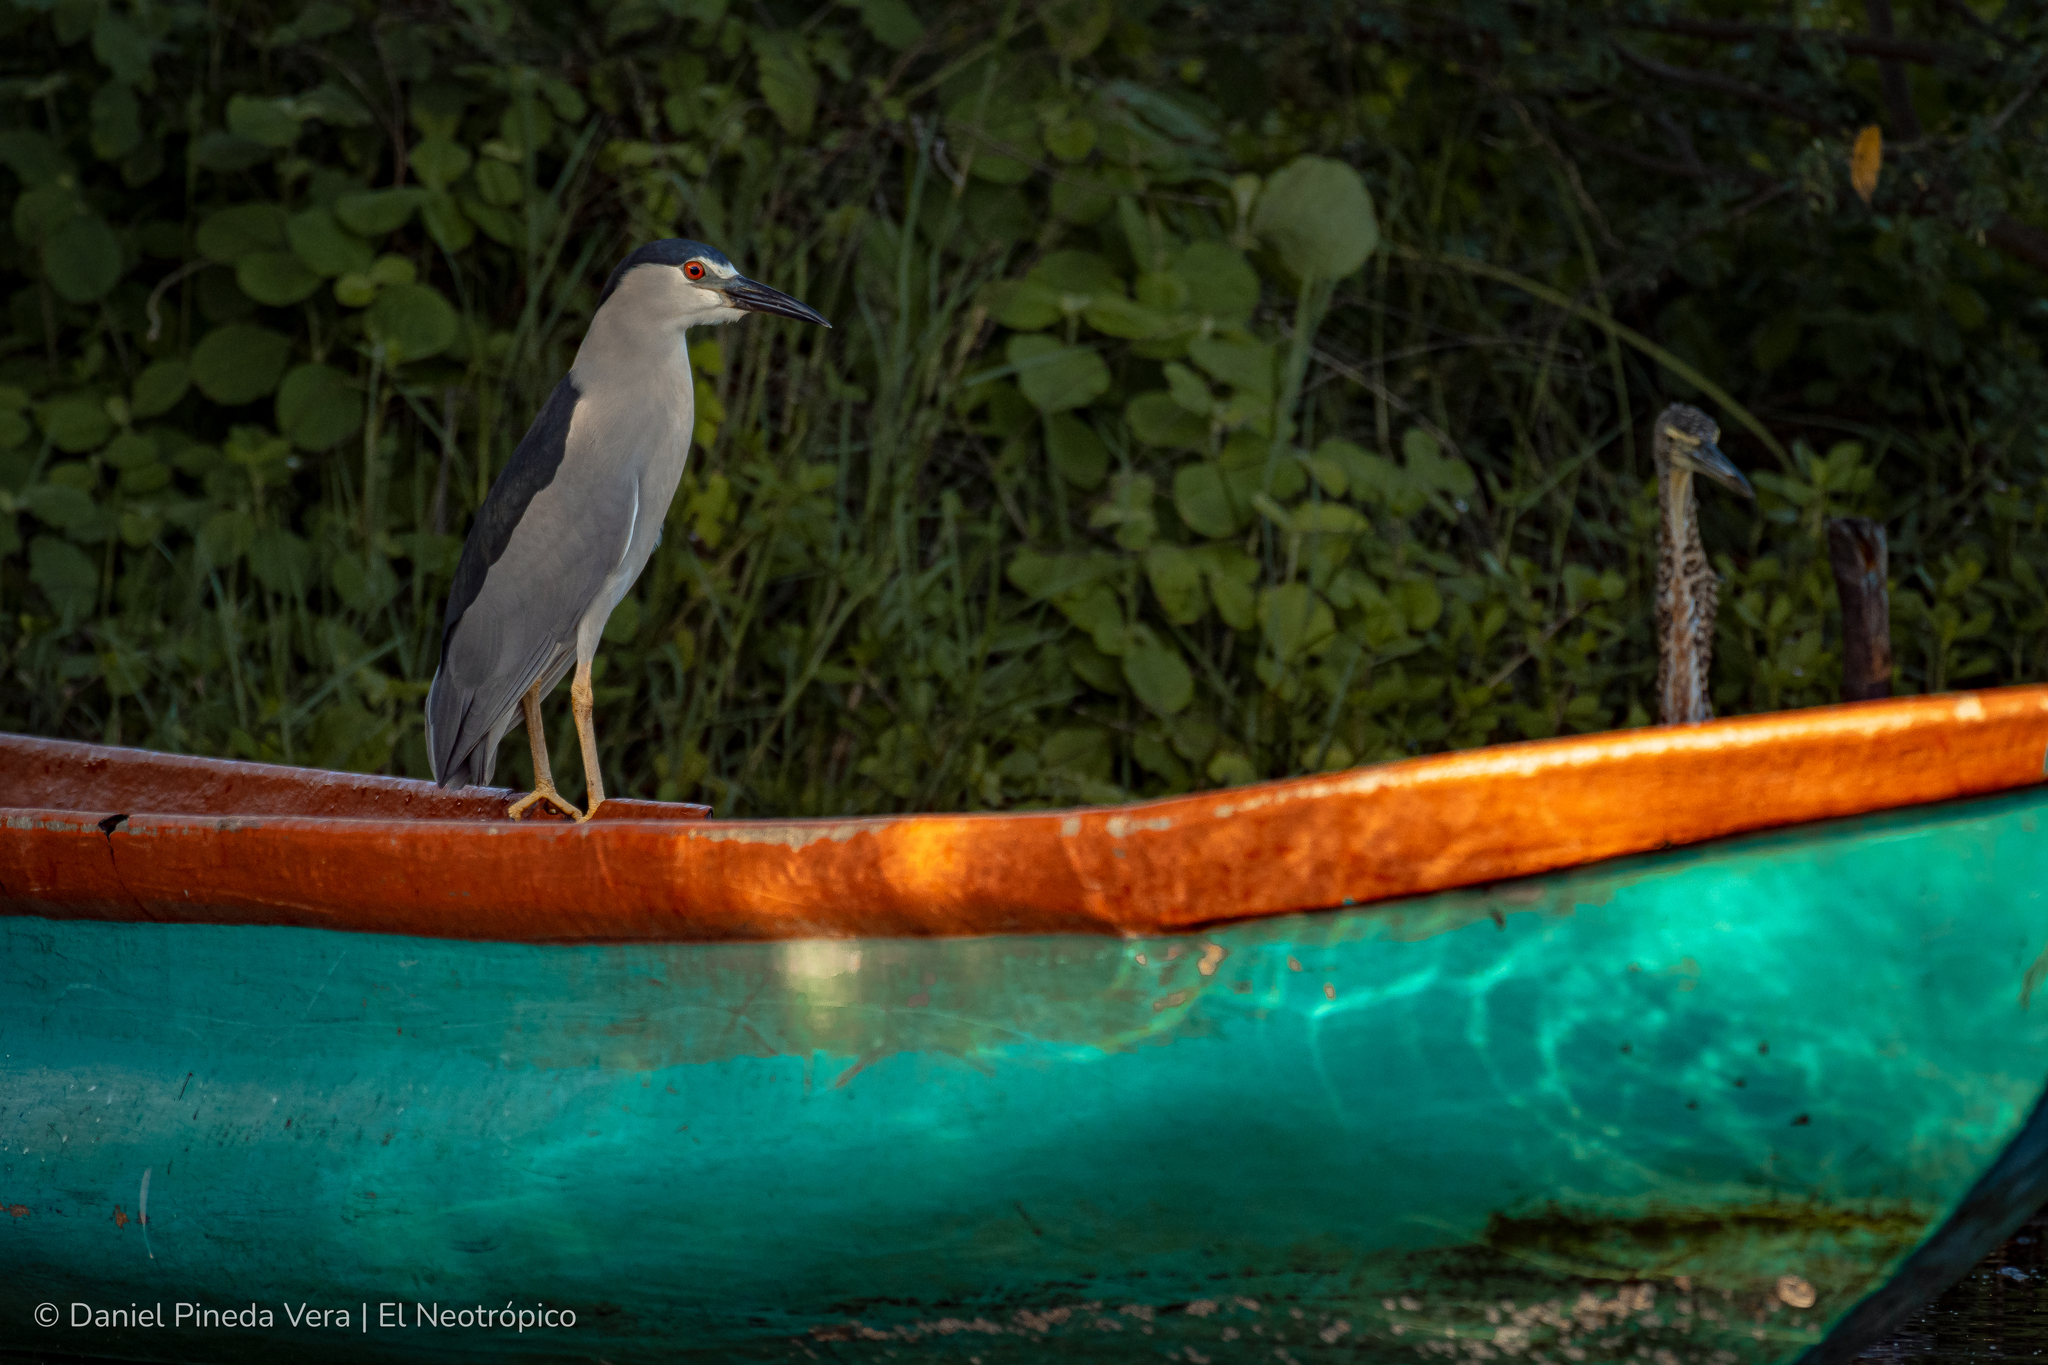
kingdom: Animalia
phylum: Chordata
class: Aves
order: Pelecaniformes
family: Ardeidae
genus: Nycticorax
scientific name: Nycticorax nycticorax
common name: Black-crowned night heron
